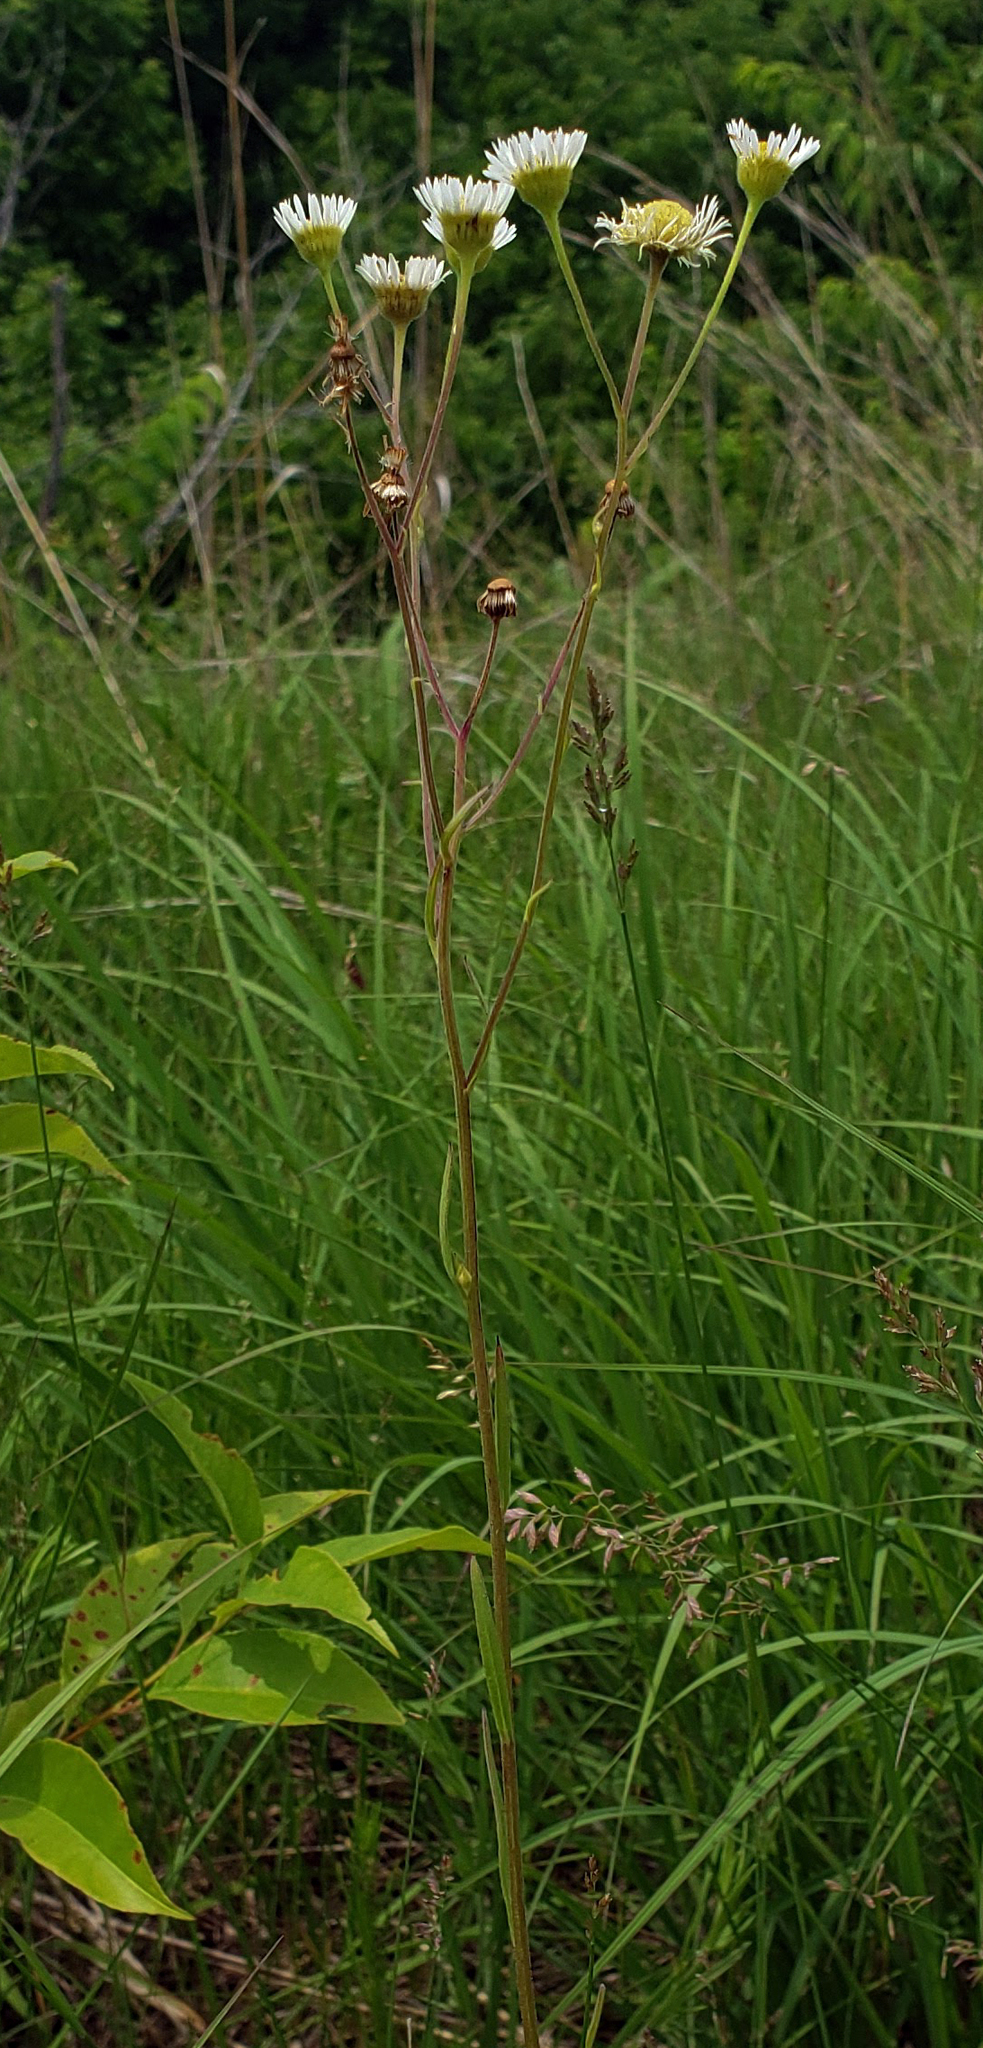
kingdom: Plantae
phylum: Tracheophyta
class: Magnoliopsida
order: Asterales
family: Asteraceae
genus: Erigeron
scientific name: Erigeron strigosus
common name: Common eastern fleabane
